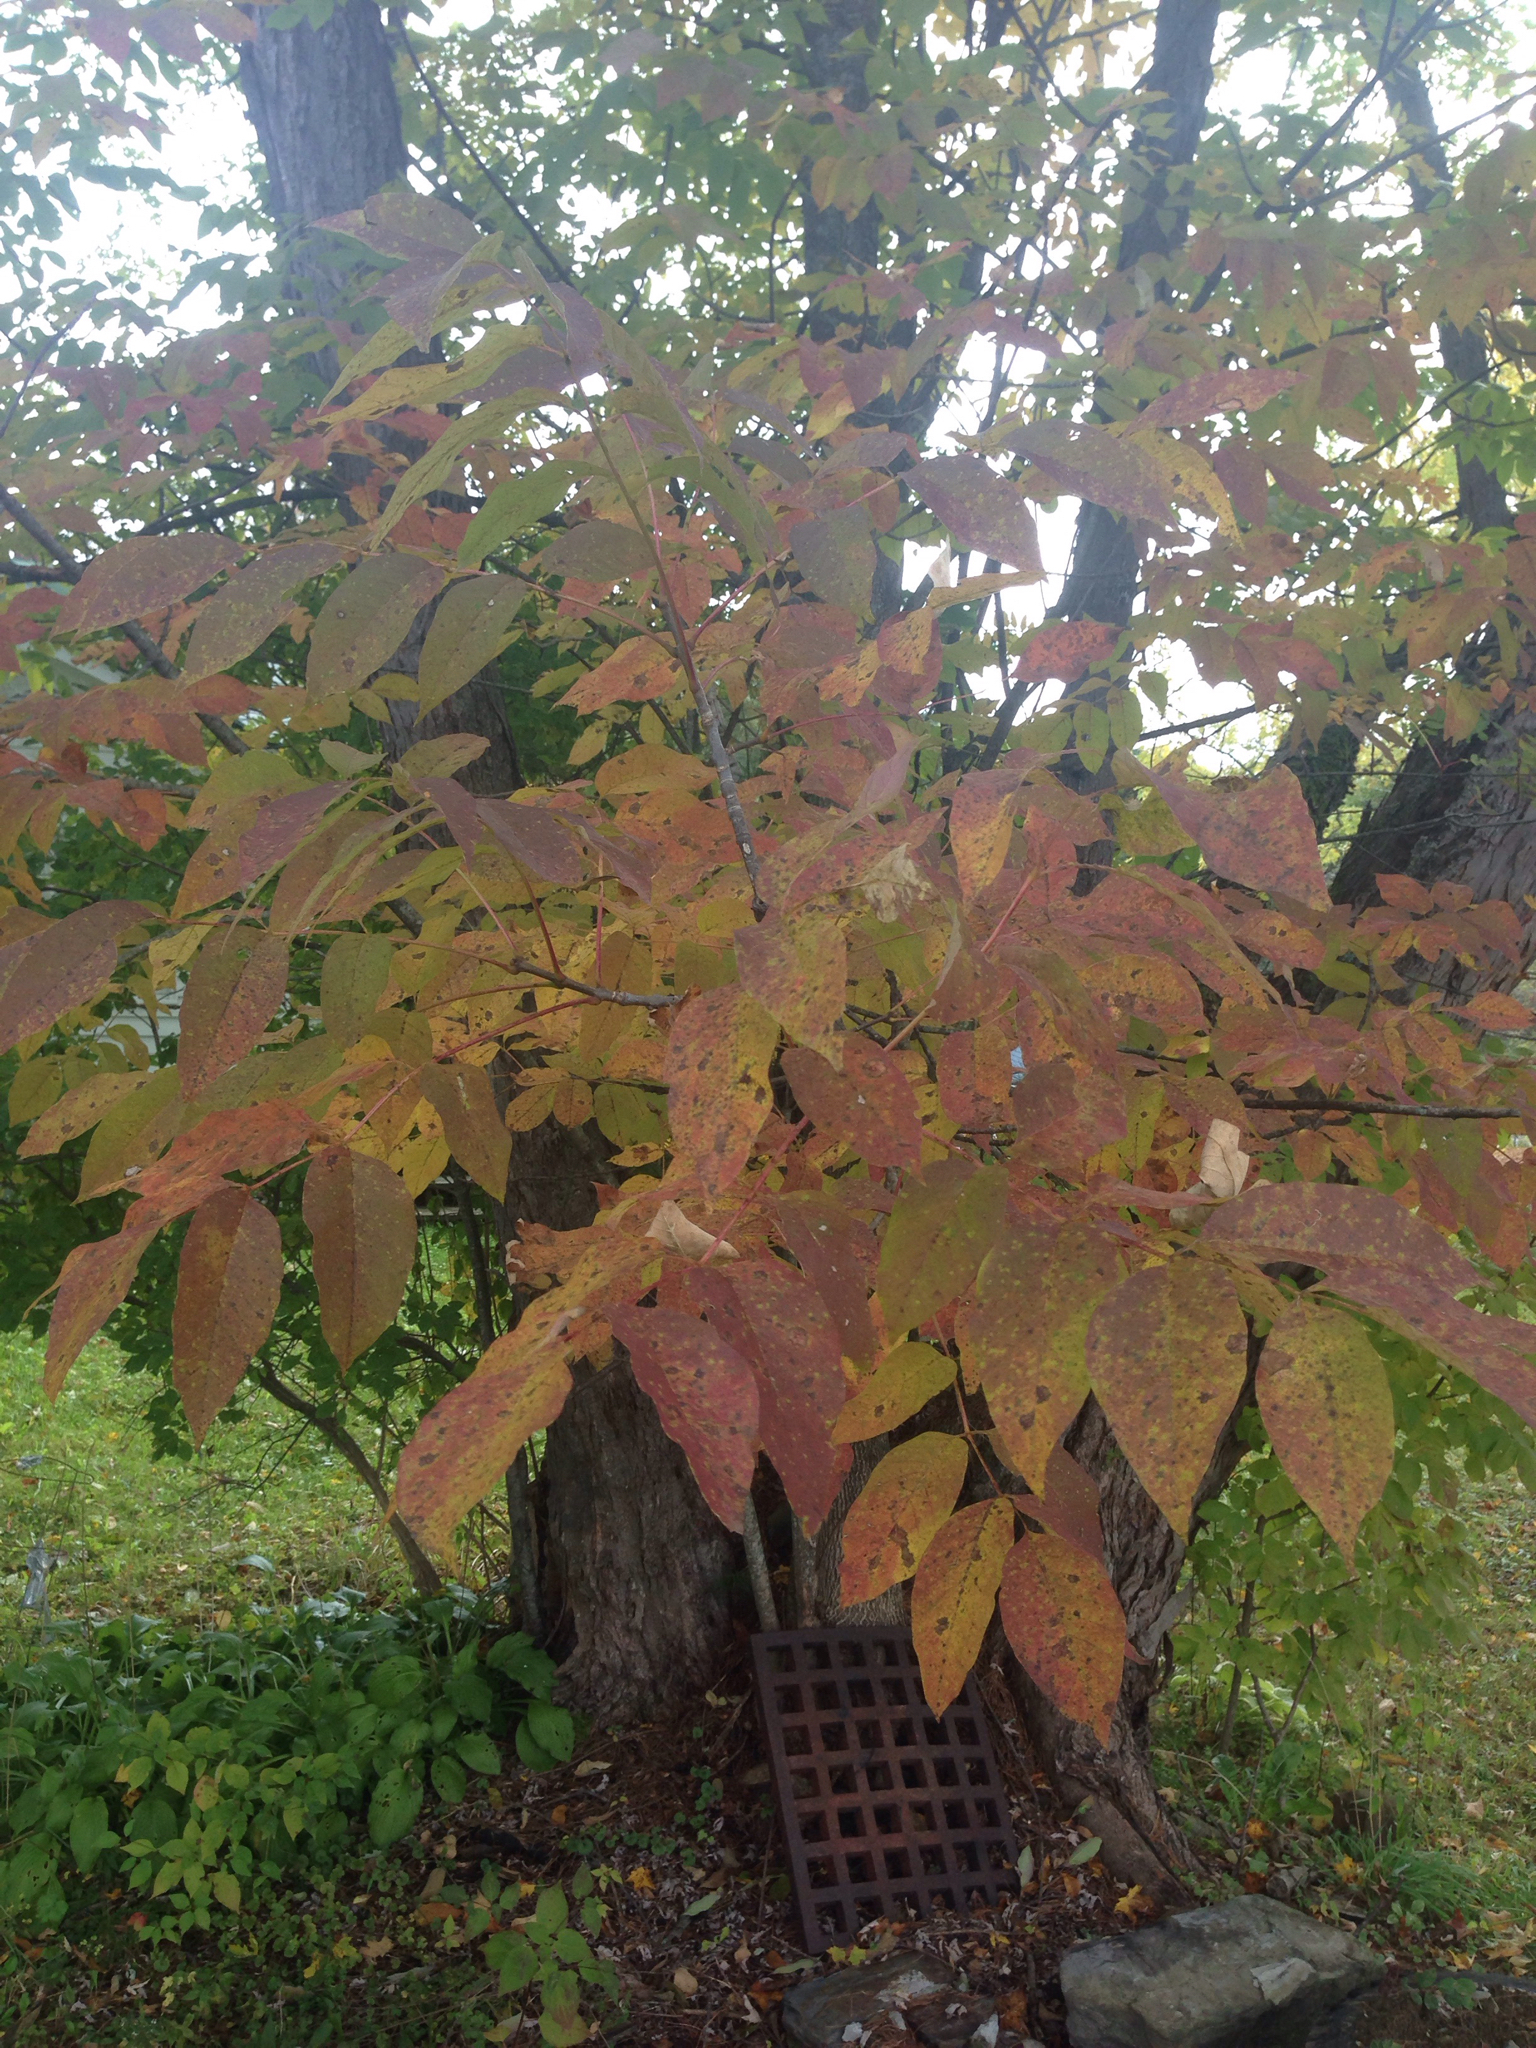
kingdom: Plantae
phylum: Tracheophyta
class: Magnoliopsida
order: Lamiales
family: Oleaceae
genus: Fraxinus
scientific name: Fraxinus americana
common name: White ash
